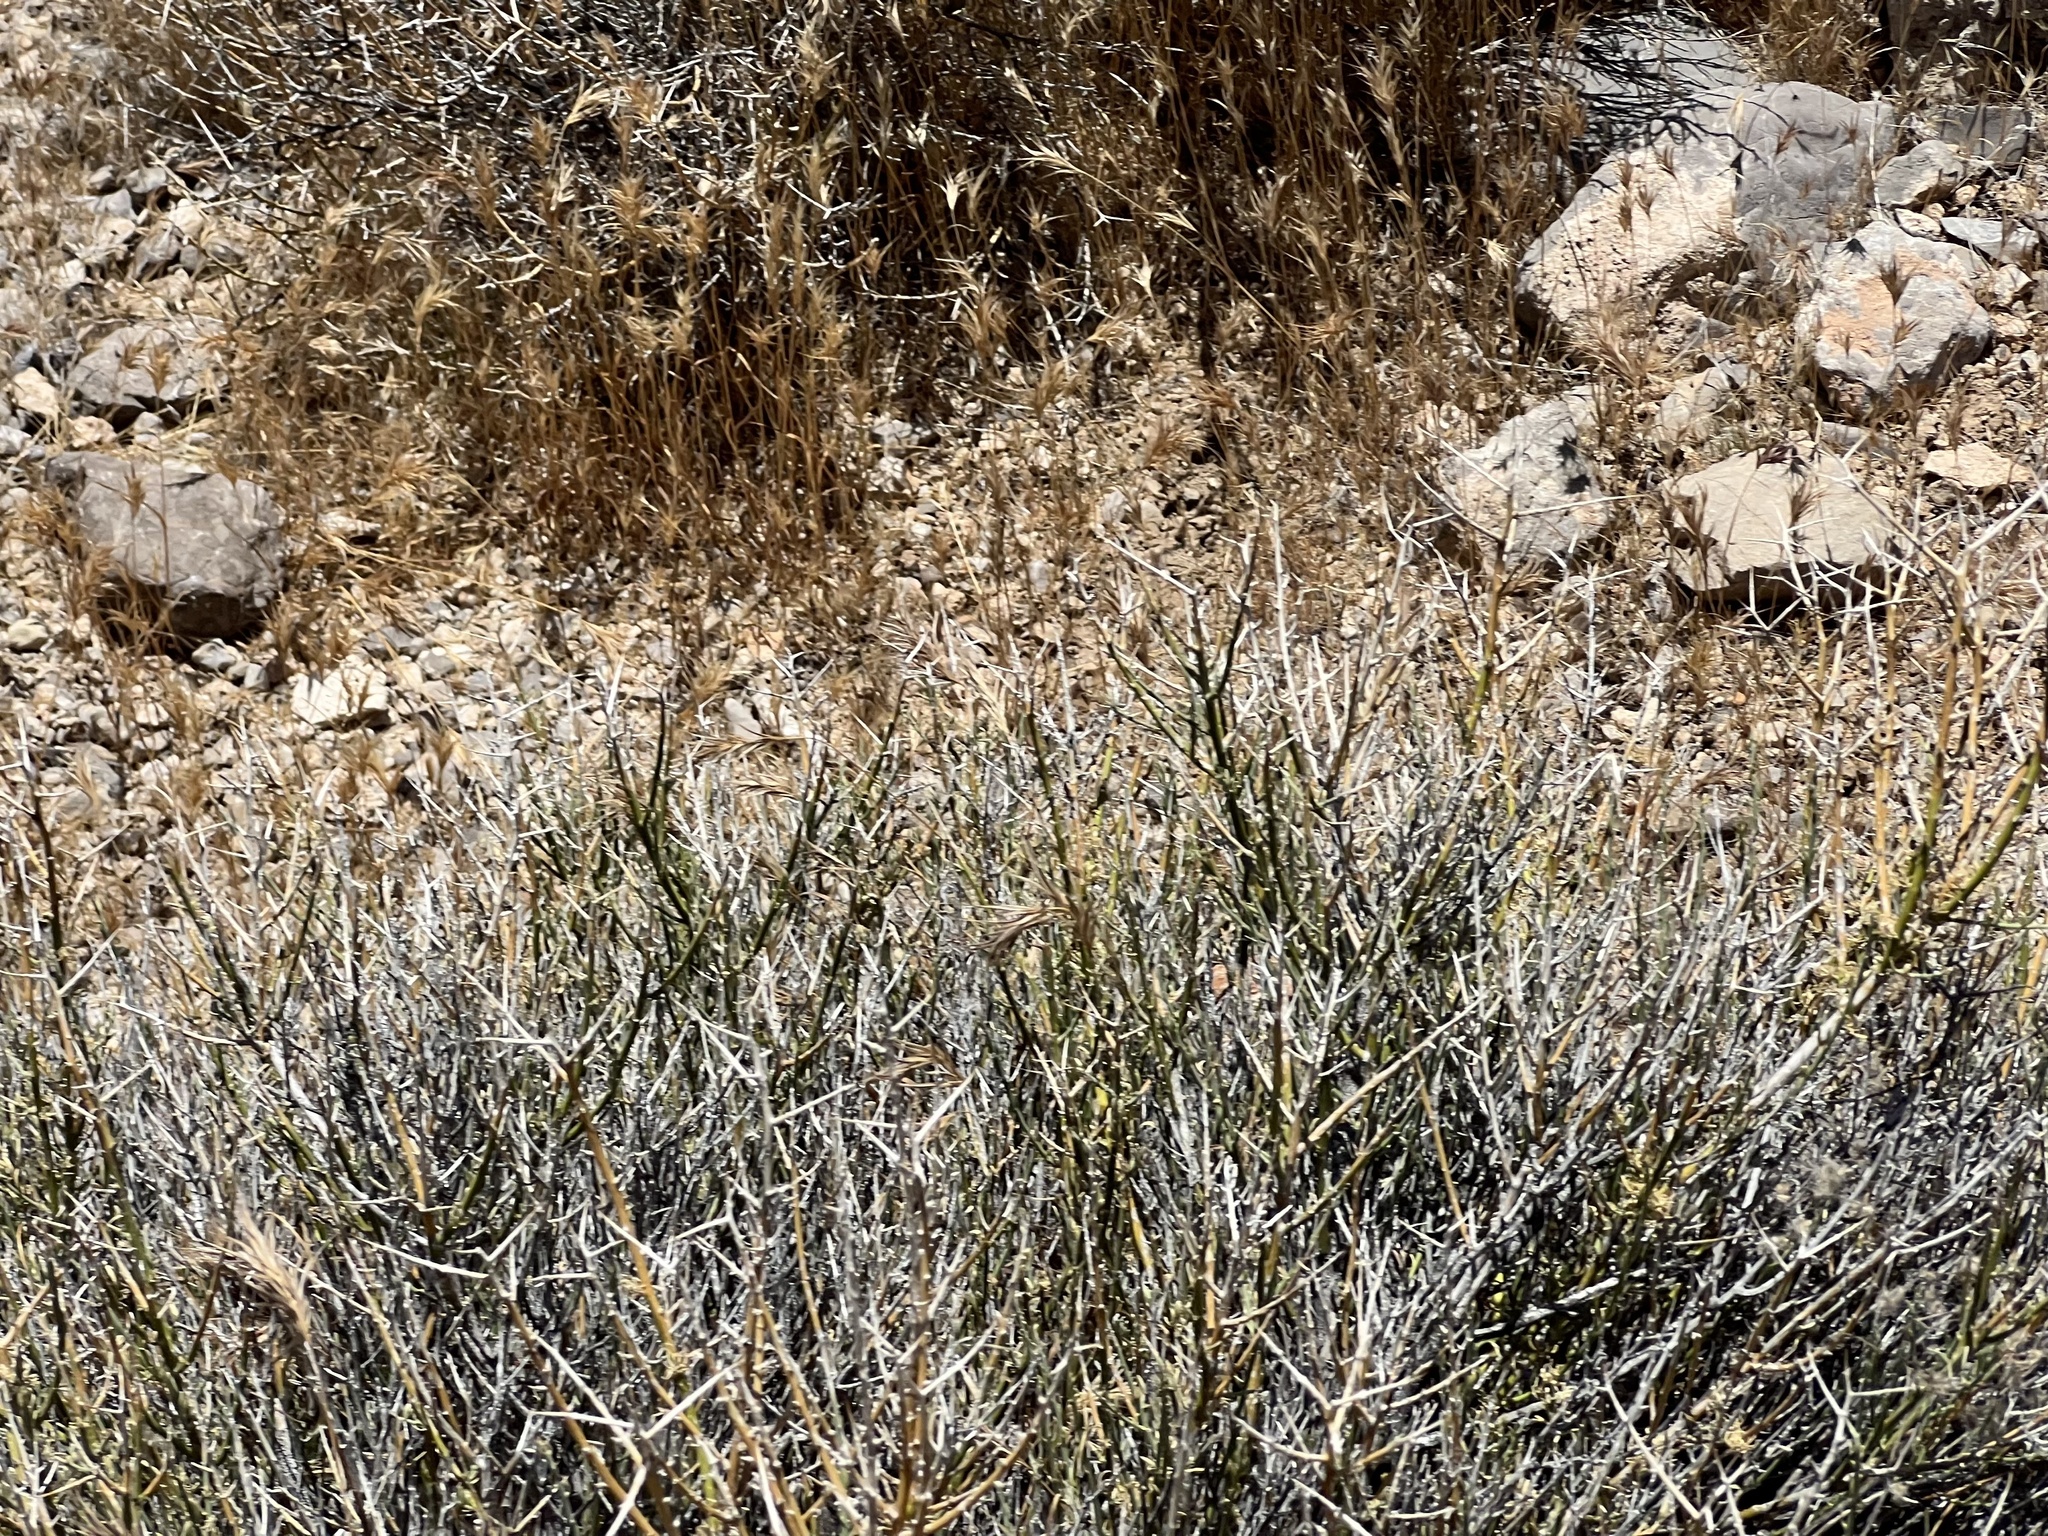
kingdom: Plantae
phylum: Tracheophyta
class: Magnoliopsida
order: Lamiales
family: Oleaceae
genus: Menodora
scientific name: Menodora spinescens
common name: Spiny menodora
